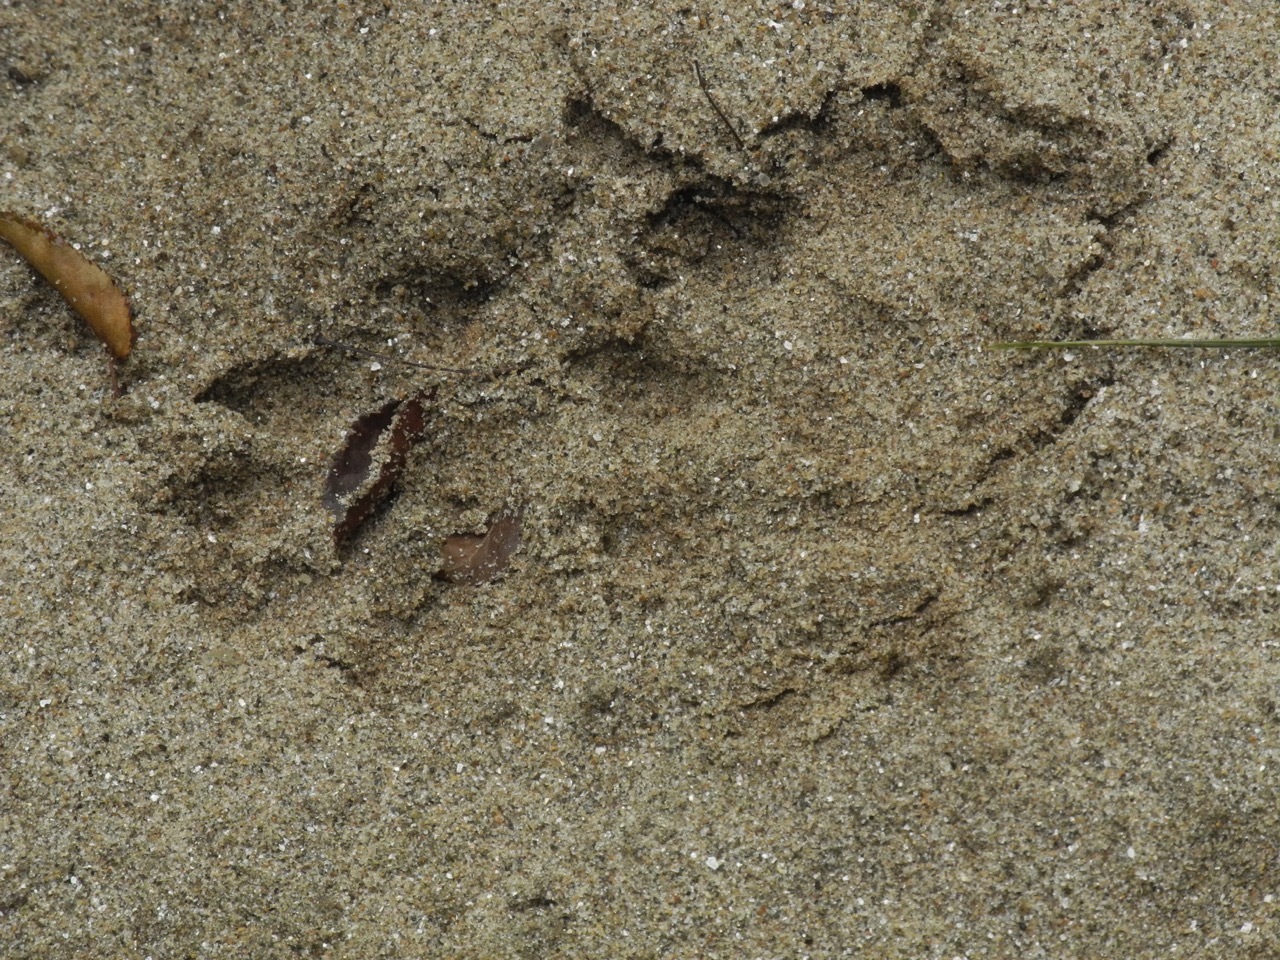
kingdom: Animalia
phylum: Chordata
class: Mammalia
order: Carnivora
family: Mustelidae
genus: Lontra
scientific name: Lontra canadensis
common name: North american river otter
